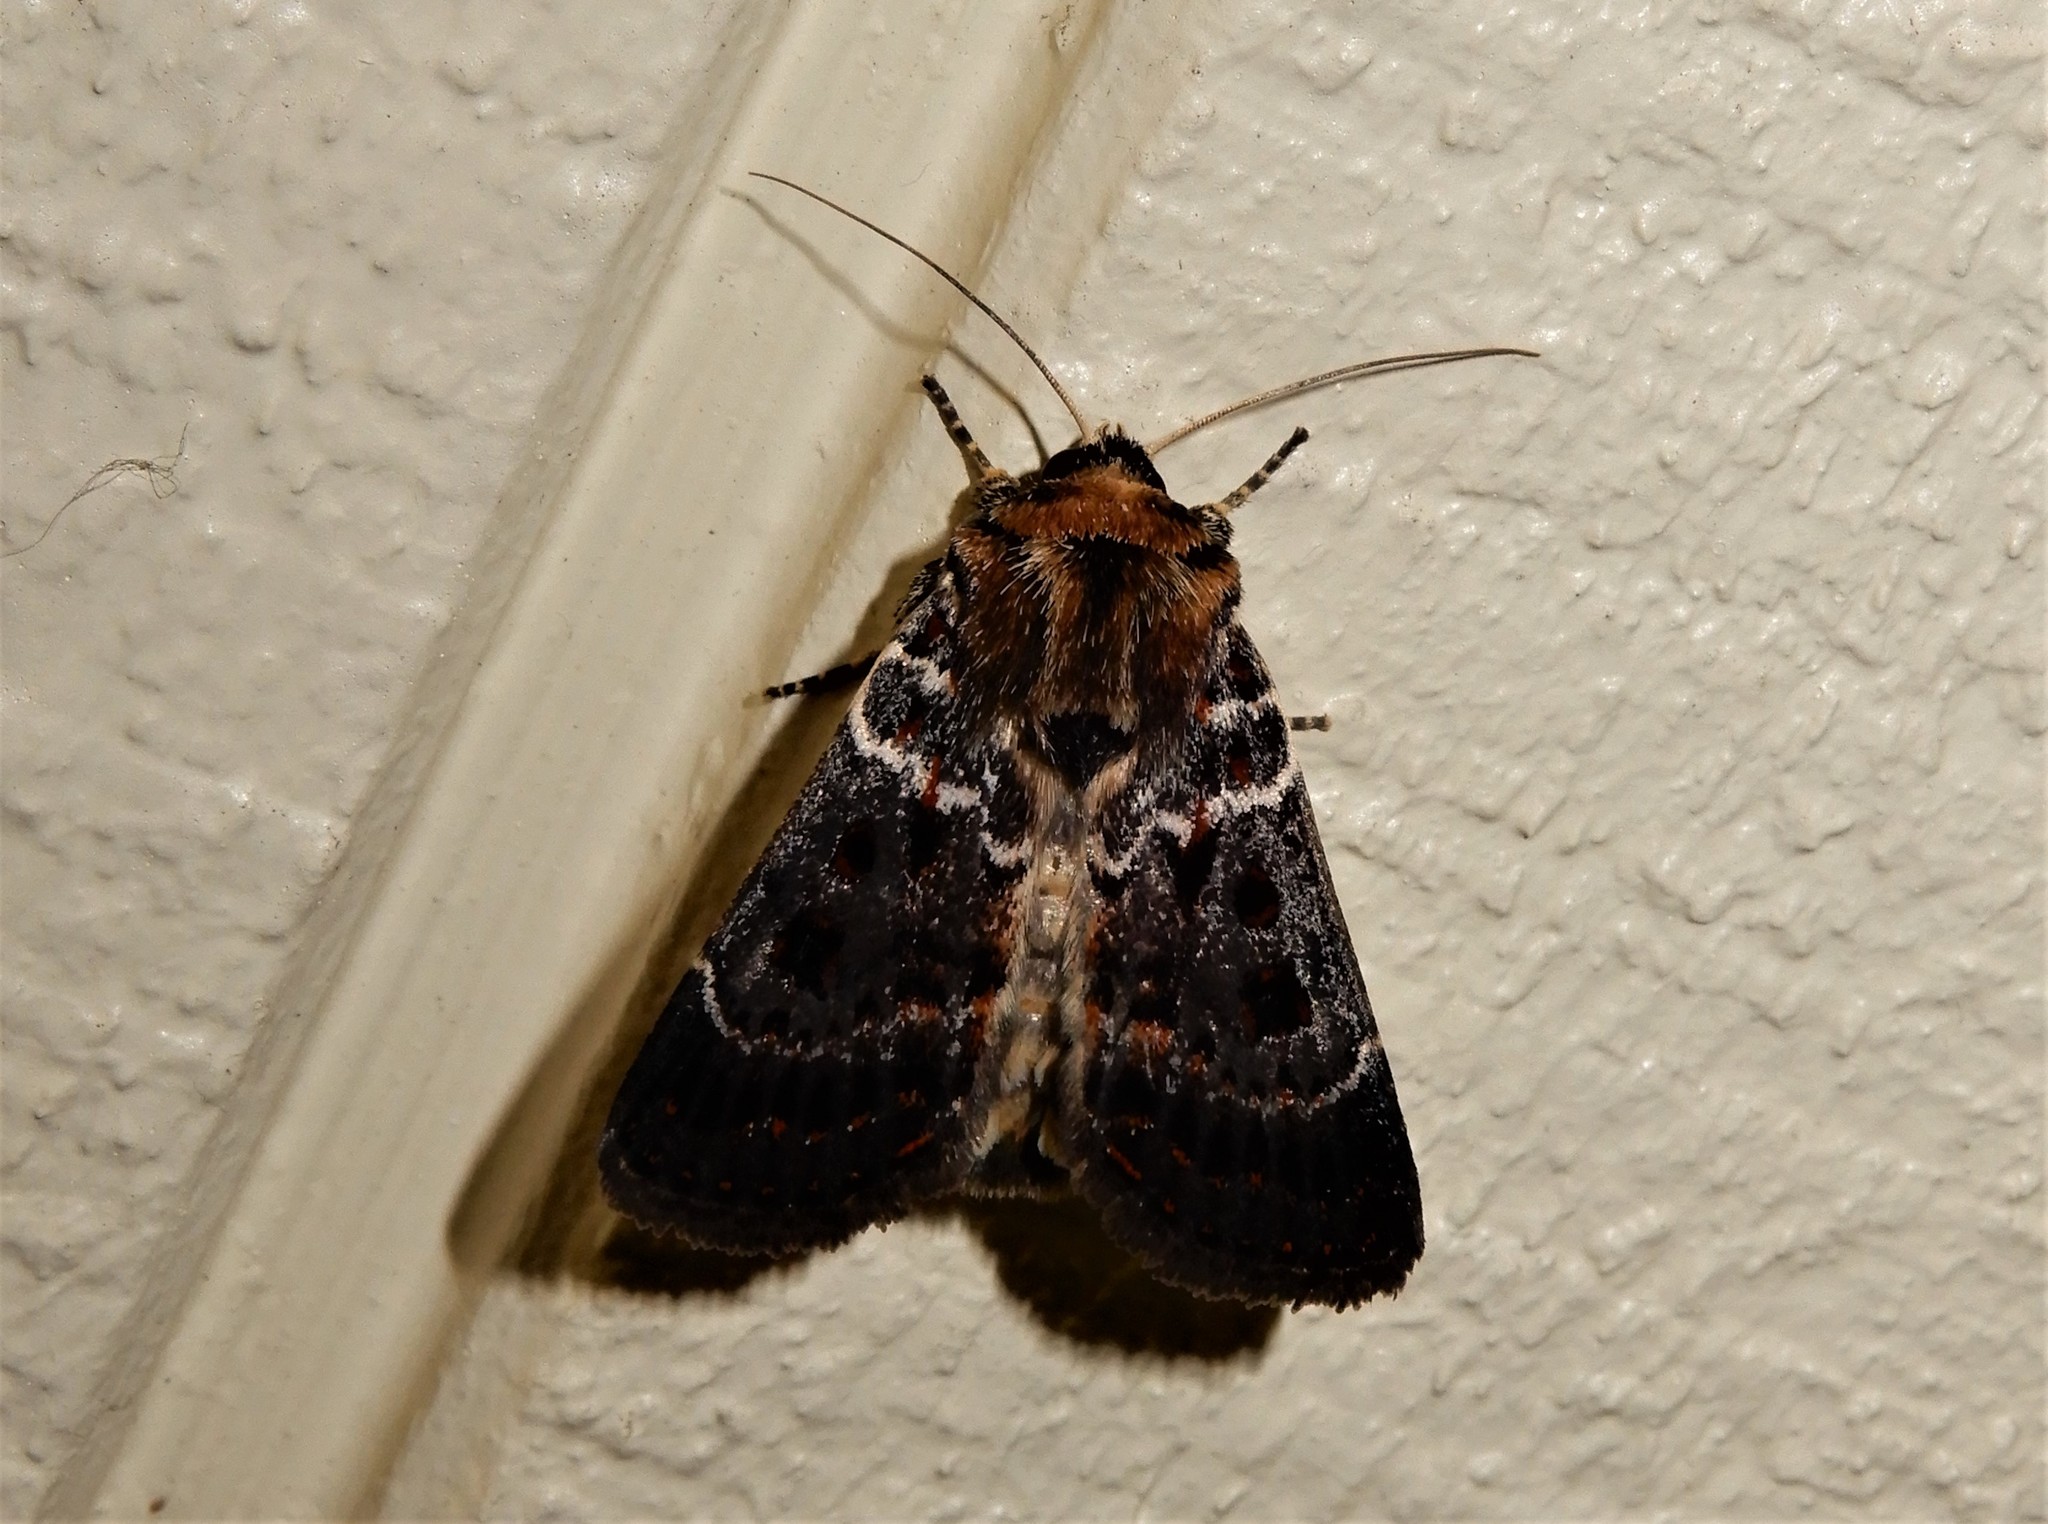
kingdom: Animalia
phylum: Arthropoda
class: Insecta
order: Lepidoptera
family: Noctuidae
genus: Proteuxoa
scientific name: Proteuxoa sanguinipuncta
